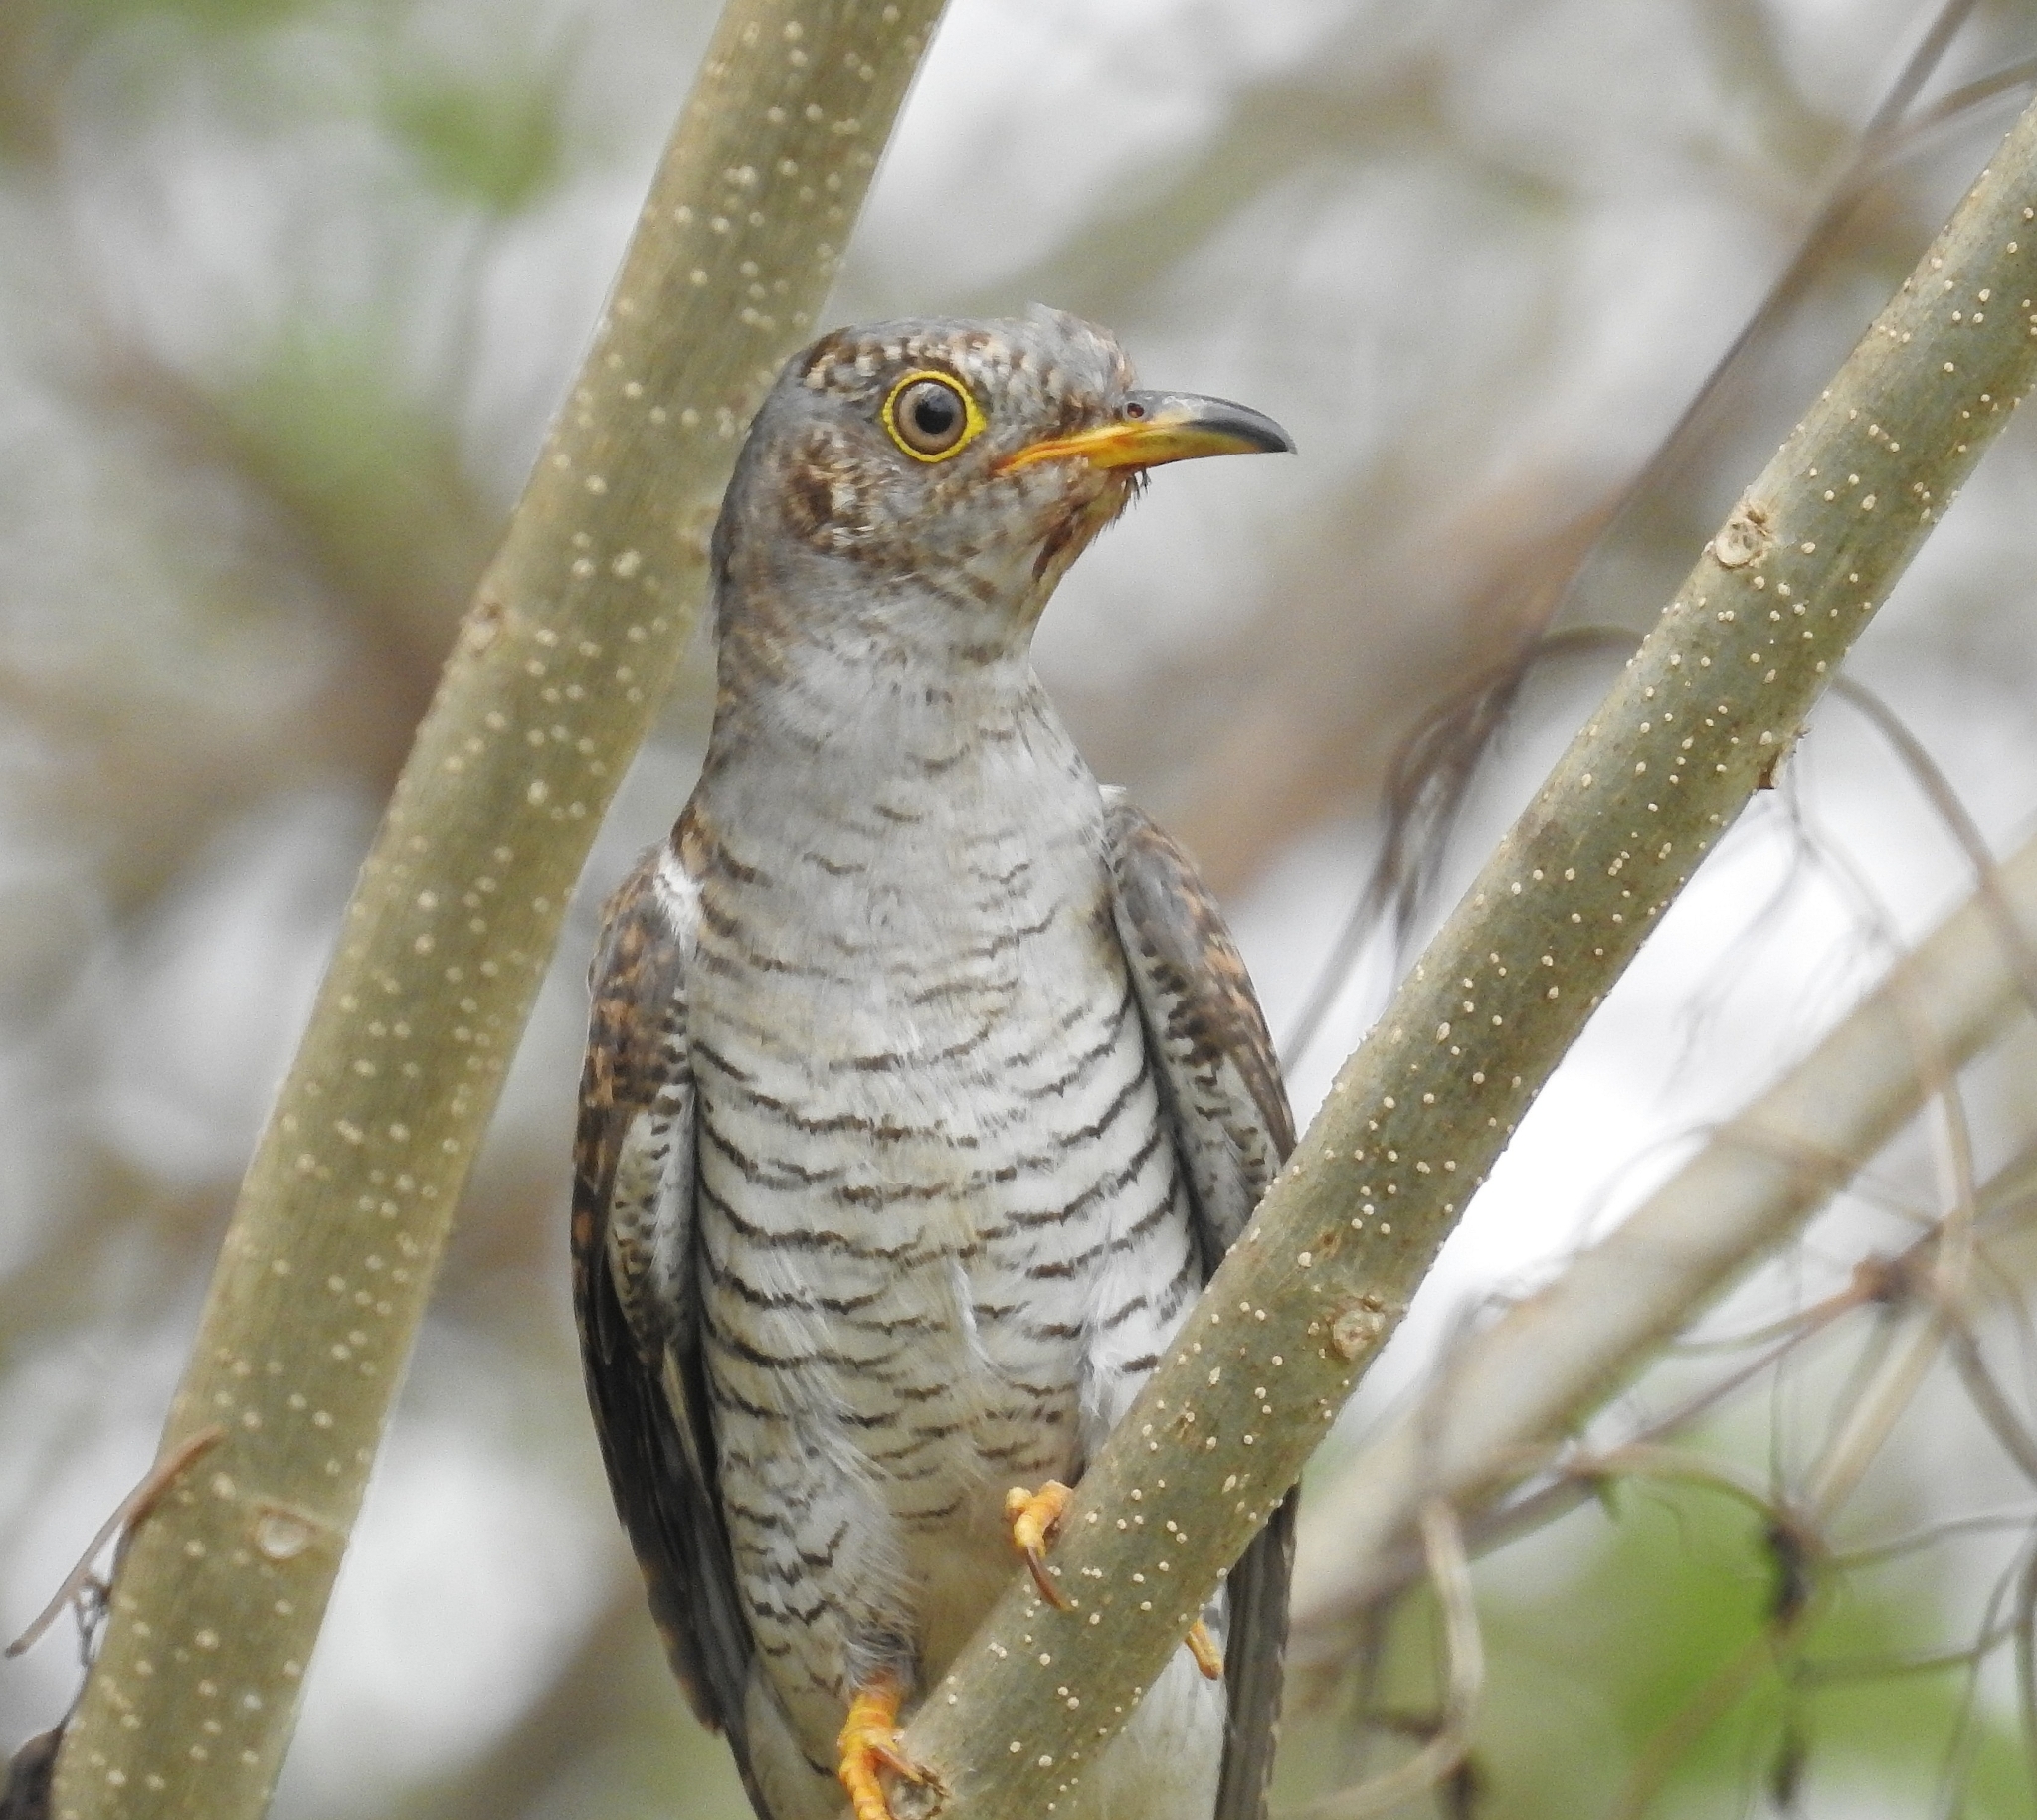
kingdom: Animalia
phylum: Chordata
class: Aves
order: Cuculiformes
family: Cuculidae
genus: Cuculus
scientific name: Cuculus canorus
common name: Common cuckoo
